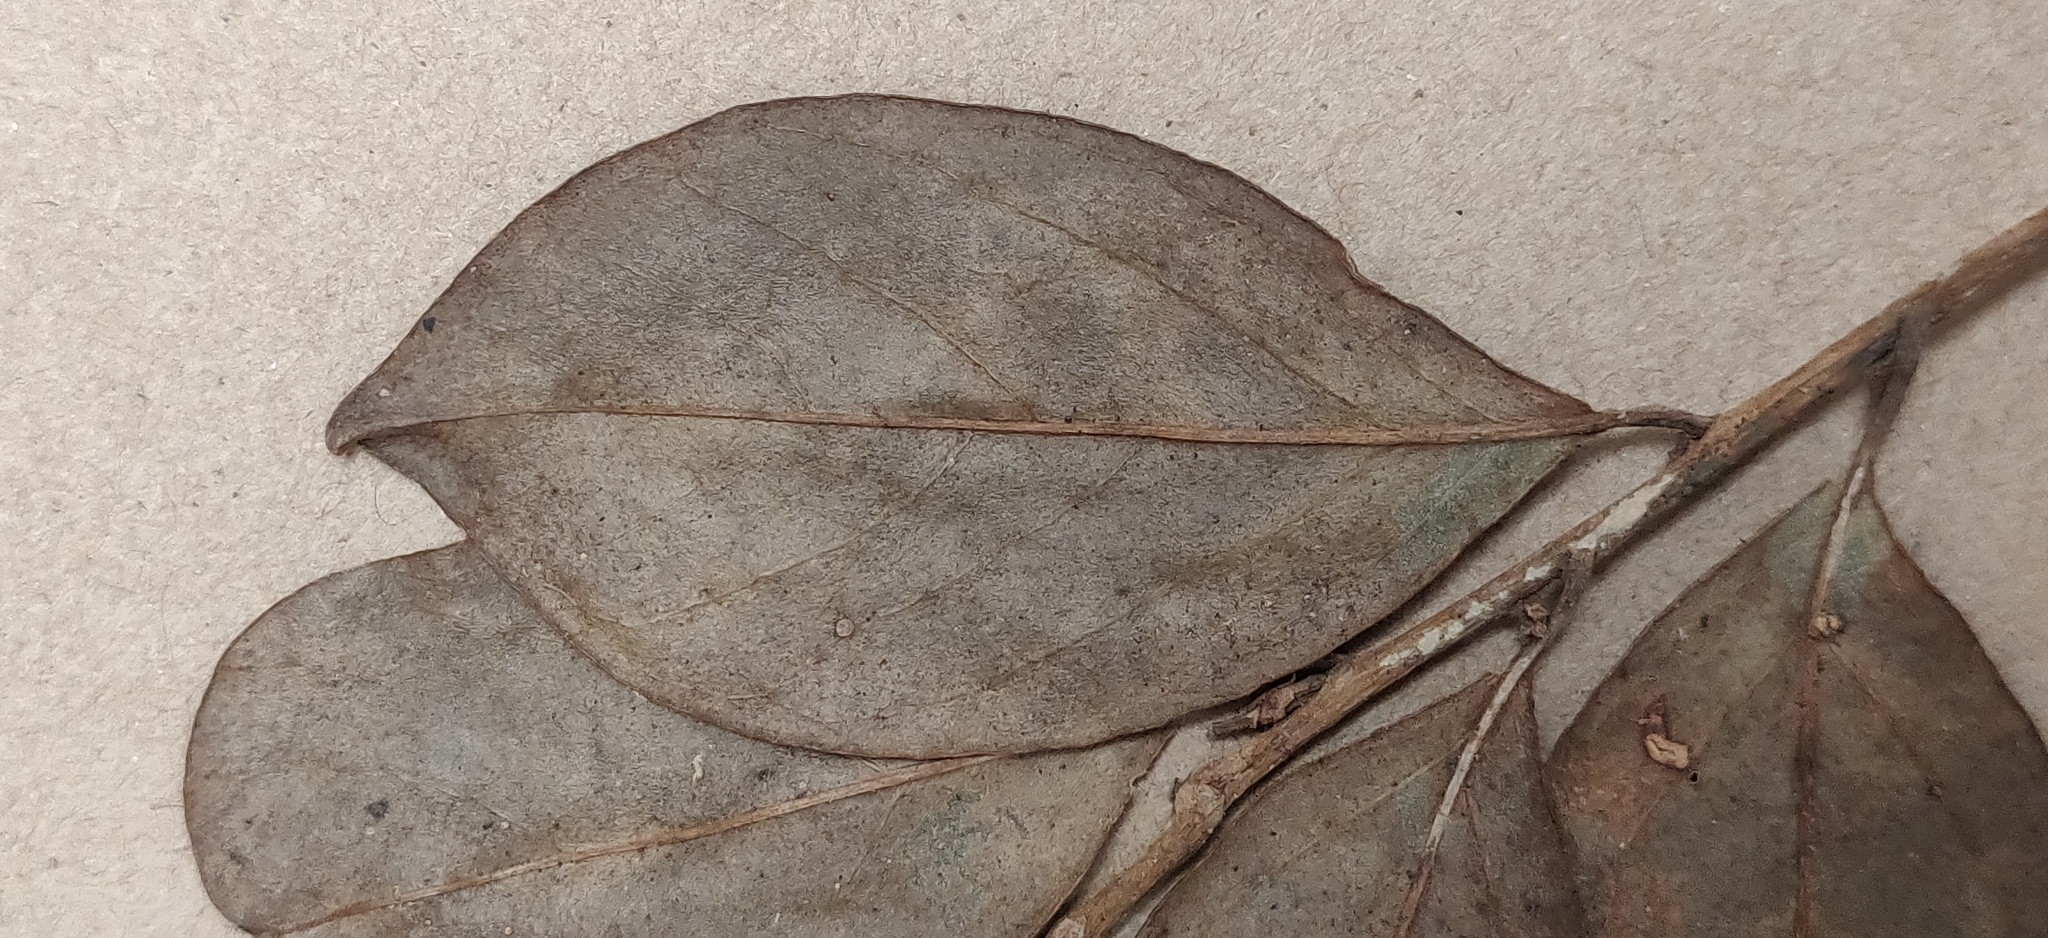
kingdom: Plantae
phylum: Tracheophyta
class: Magnoliopsida
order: Cardiopteridales
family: Stemonuraceae
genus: Gomphandra
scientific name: Gomphandra coriacea
